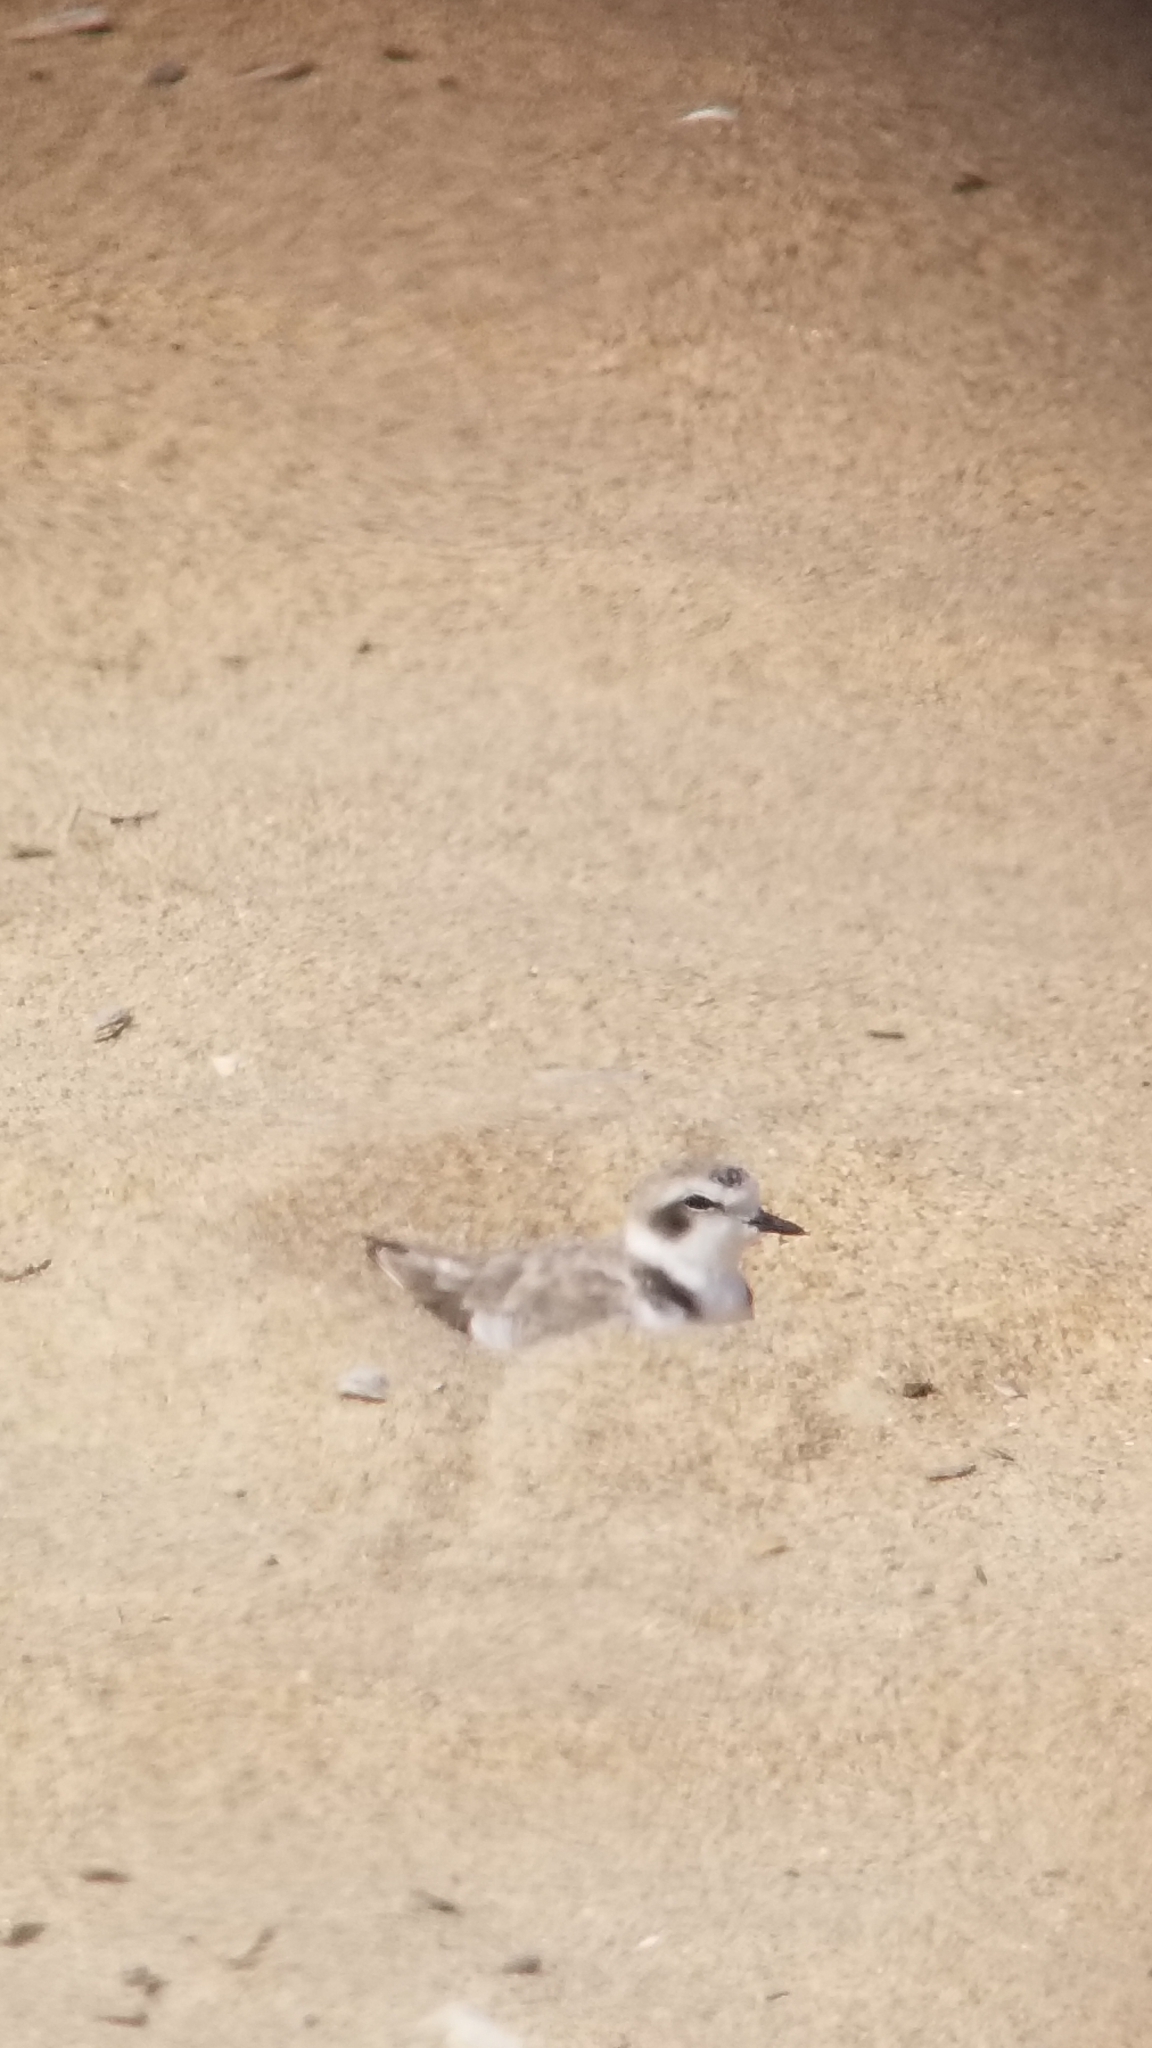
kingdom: Animalia
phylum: Chordata
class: Aves
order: Charadriiformes
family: Charadriidae
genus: Anarhynchus
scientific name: Anarhynchus
